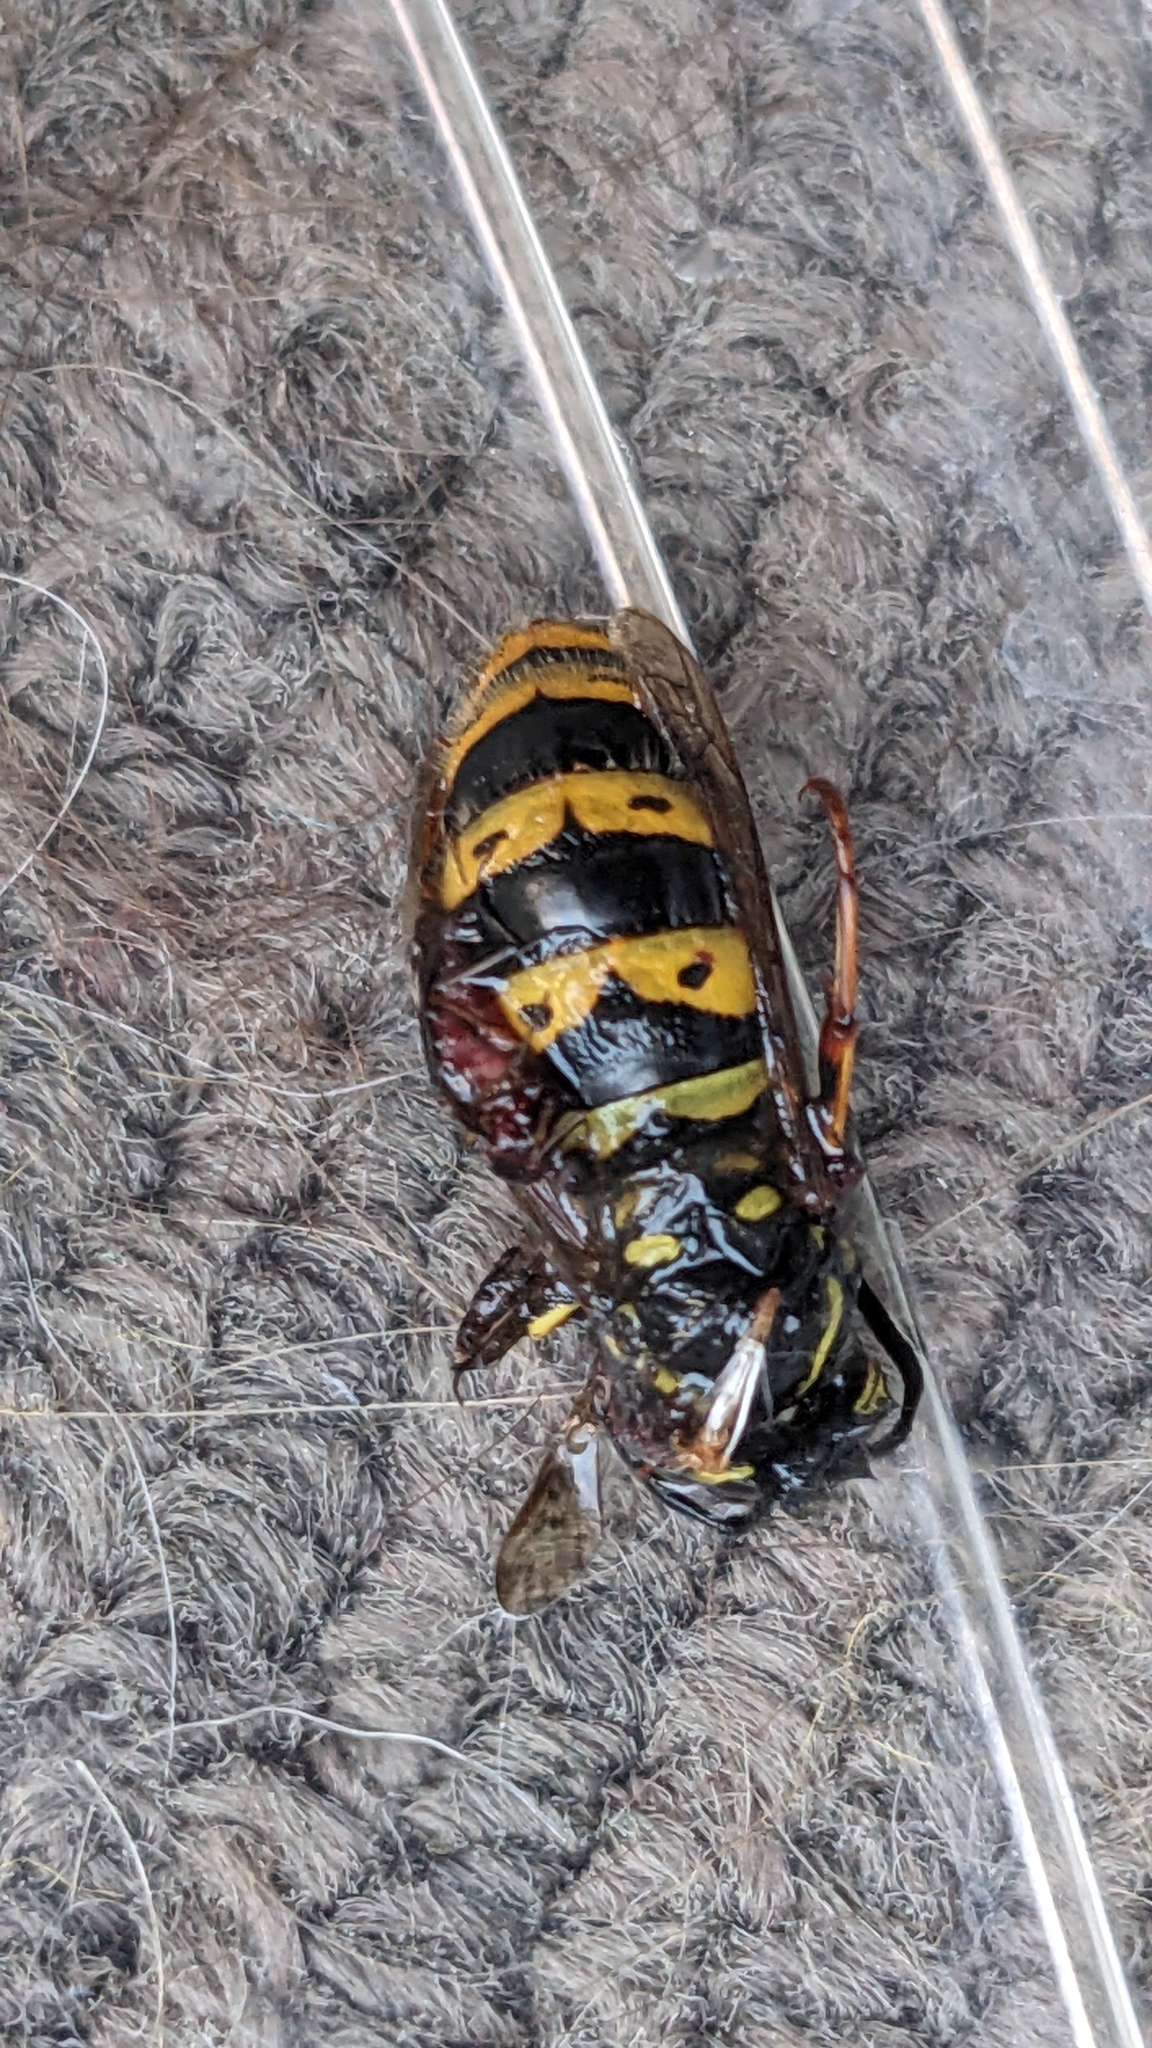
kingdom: Animalia
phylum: Arthropoda
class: Insecta
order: Hymenoptera
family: Vespidae
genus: Vespula
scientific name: Vespula vulgaris
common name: Common wasp
